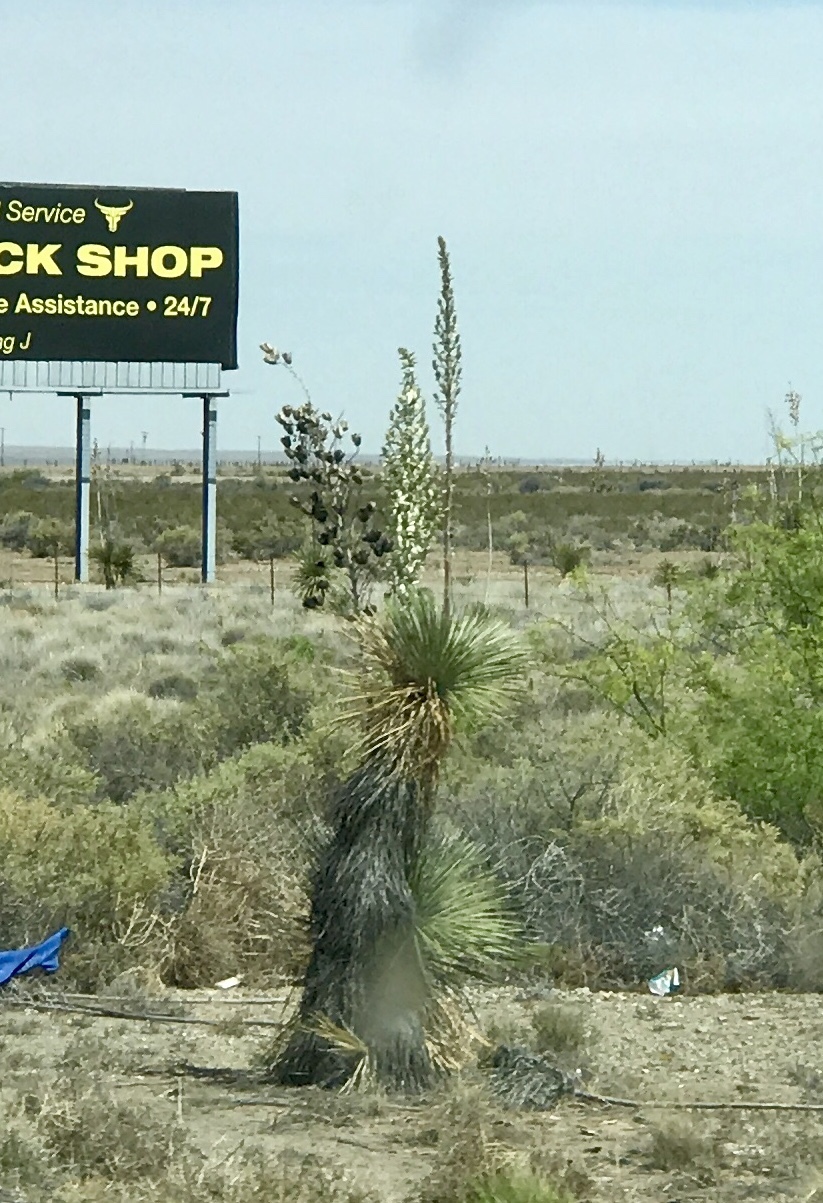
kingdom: Plantae
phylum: Tracheophyta
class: Liliopsida
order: Asparagales
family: Asparagaceae
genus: Yucca
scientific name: Yucca elata
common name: Palmella
